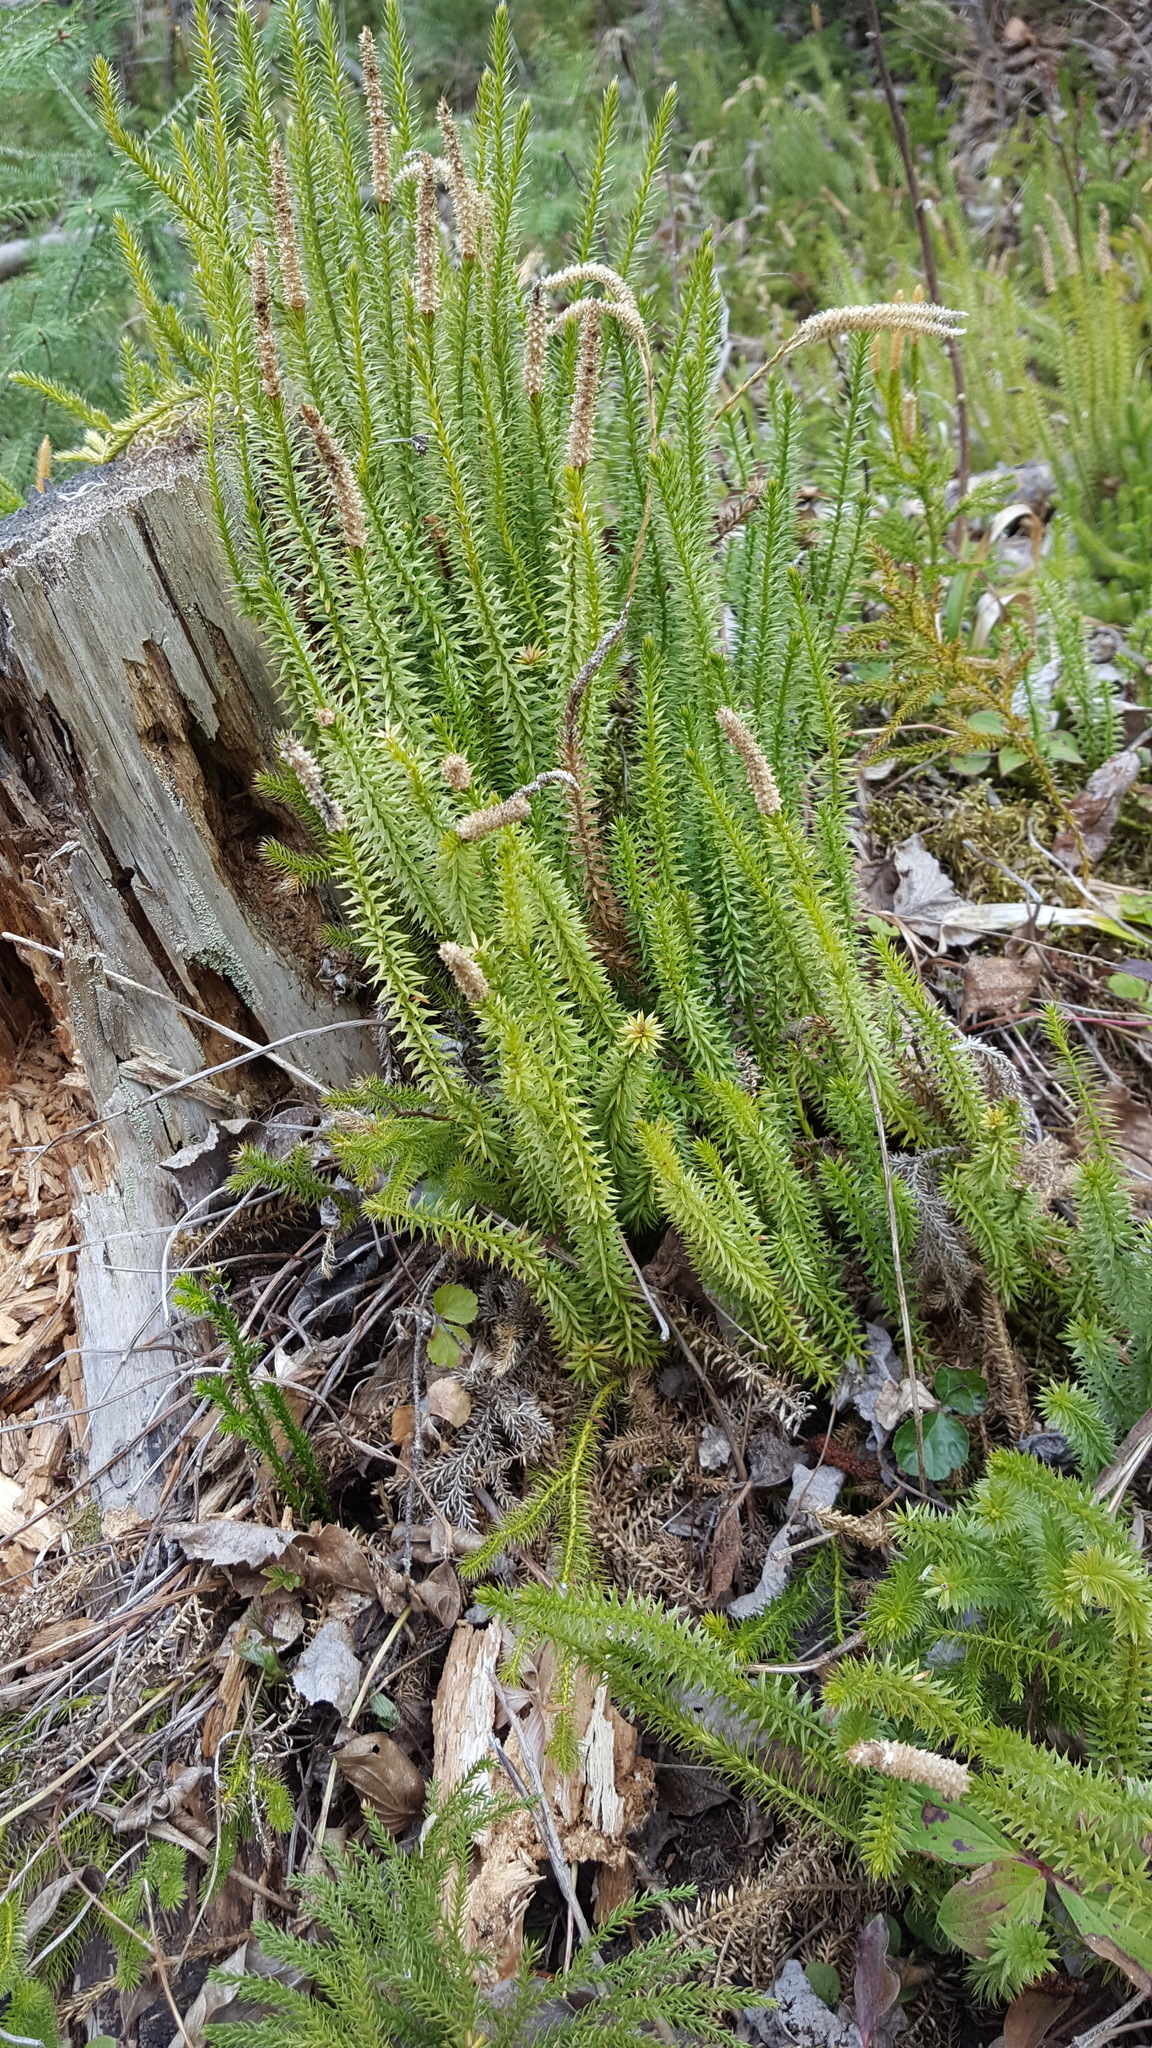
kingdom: Plantae
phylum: Tracheophyta
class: Lycopodiopsida
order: Lycopodiales
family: Lycopodiaceae
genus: Spinulum
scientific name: Spinulum annotinum
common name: Interrupted club-moss
